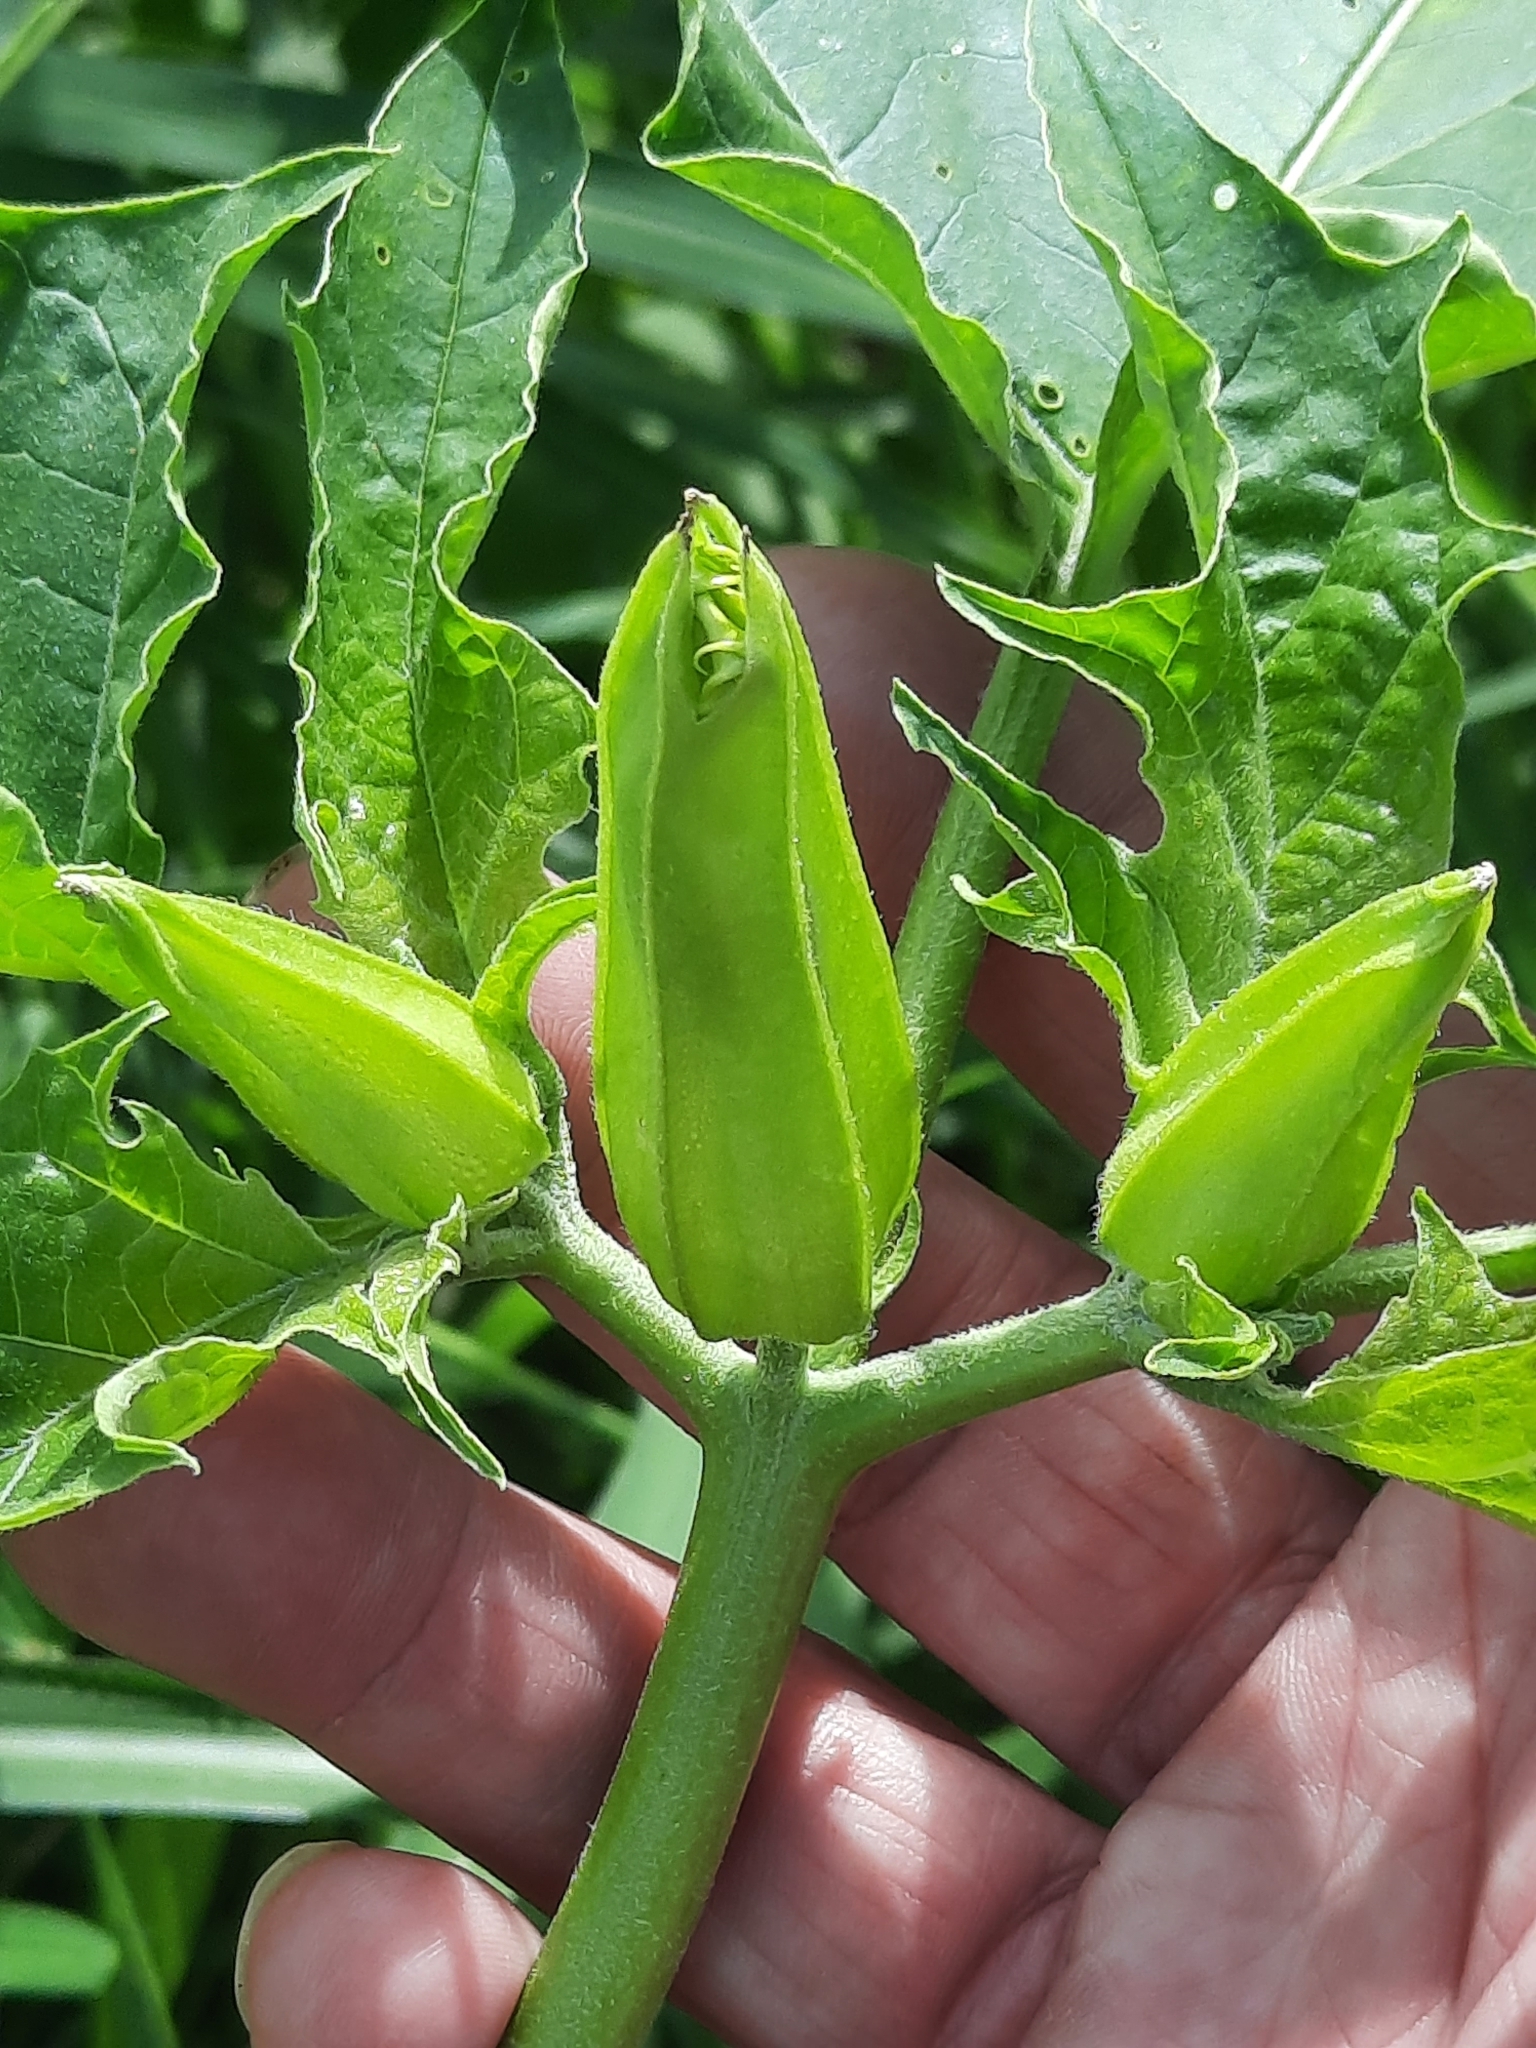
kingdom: Plantae
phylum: Tracheophyta
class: Magnoliopsida
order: Solanales
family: Solanaceae
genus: Datura
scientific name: Datura stramonium
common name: Thorn-apple
